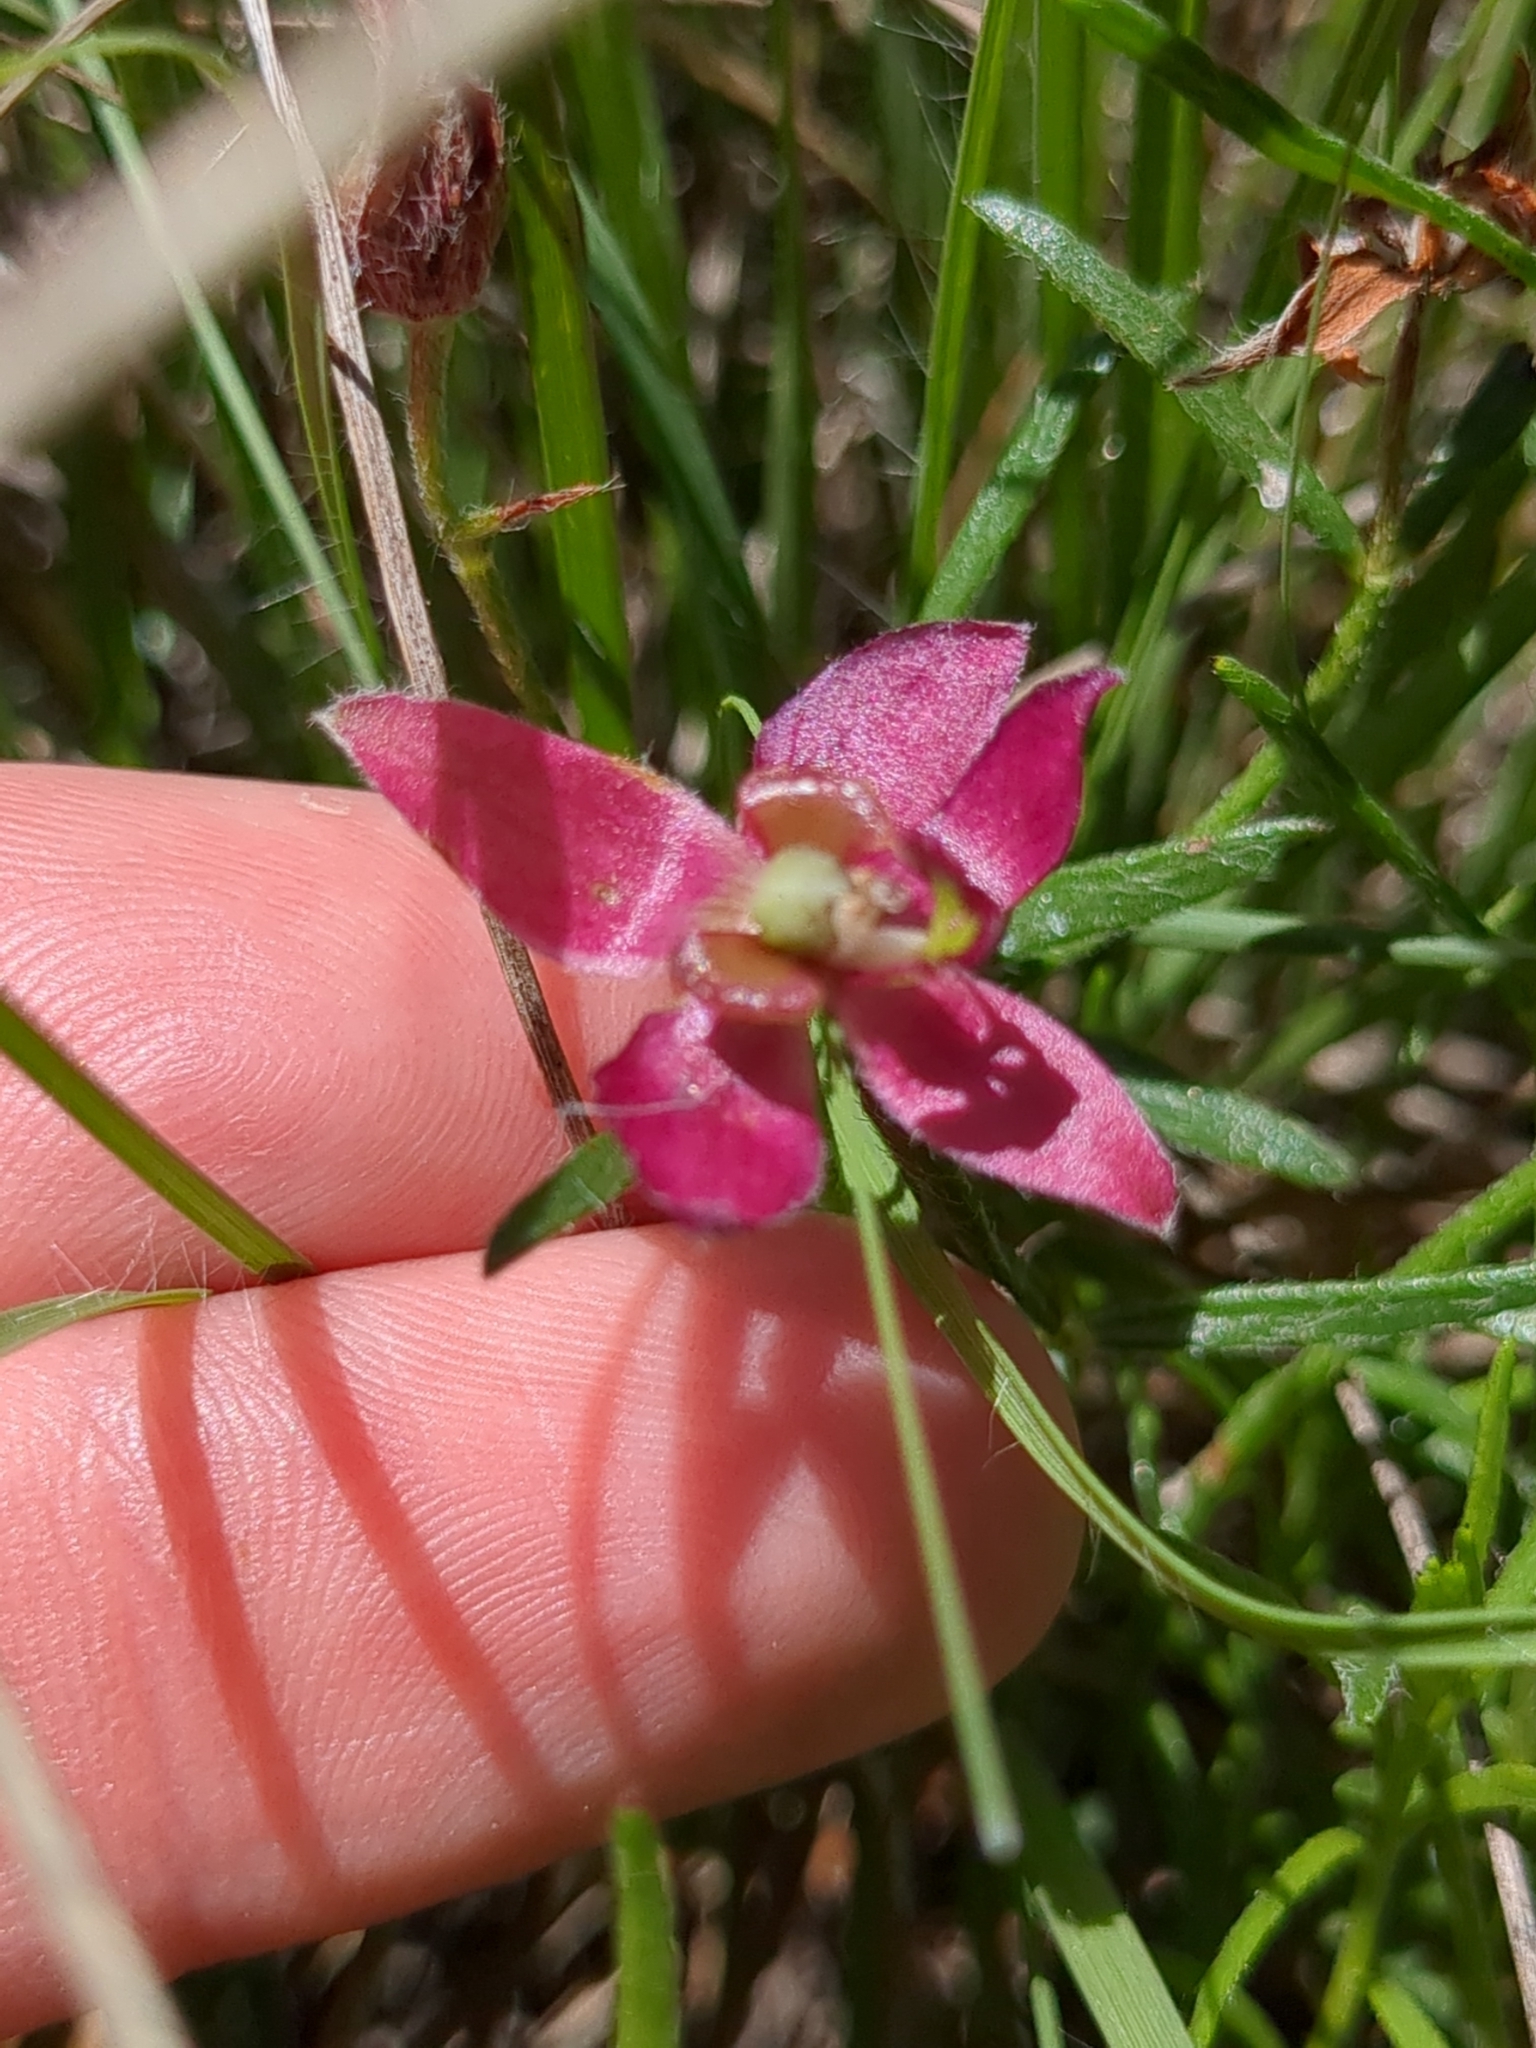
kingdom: Plantae
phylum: Tracheophyta
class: Magnoliopsida
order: Zygophyllales
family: Krameriaceae
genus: Krameria
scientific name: Krameria lanceolata
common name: Ratany
